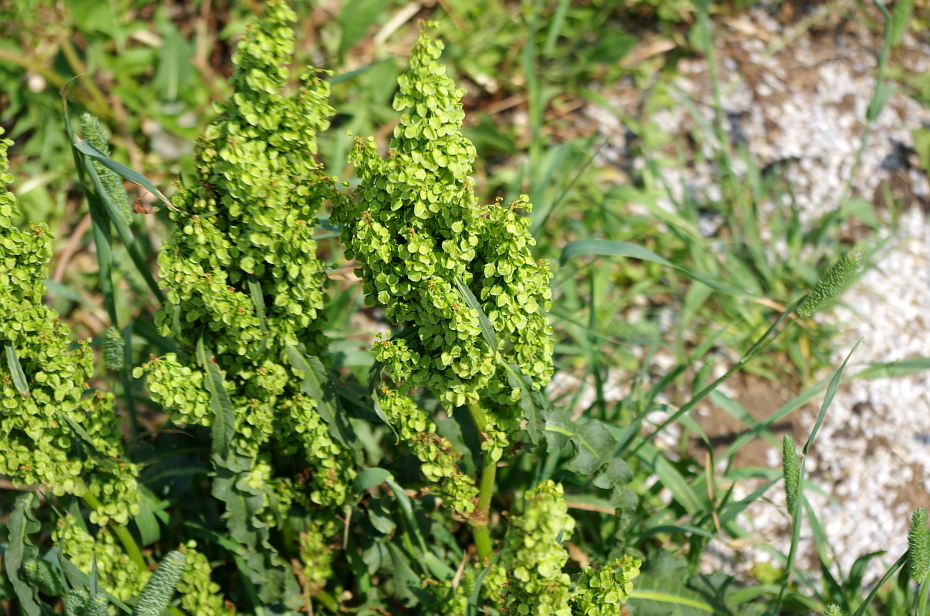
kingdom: Plantae
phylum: Tracheophyta
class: Magnoliopsida
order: Caryophyllales
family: Polygonaceae
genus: Rumex
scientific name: Rumex crispus
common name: Curled dock
